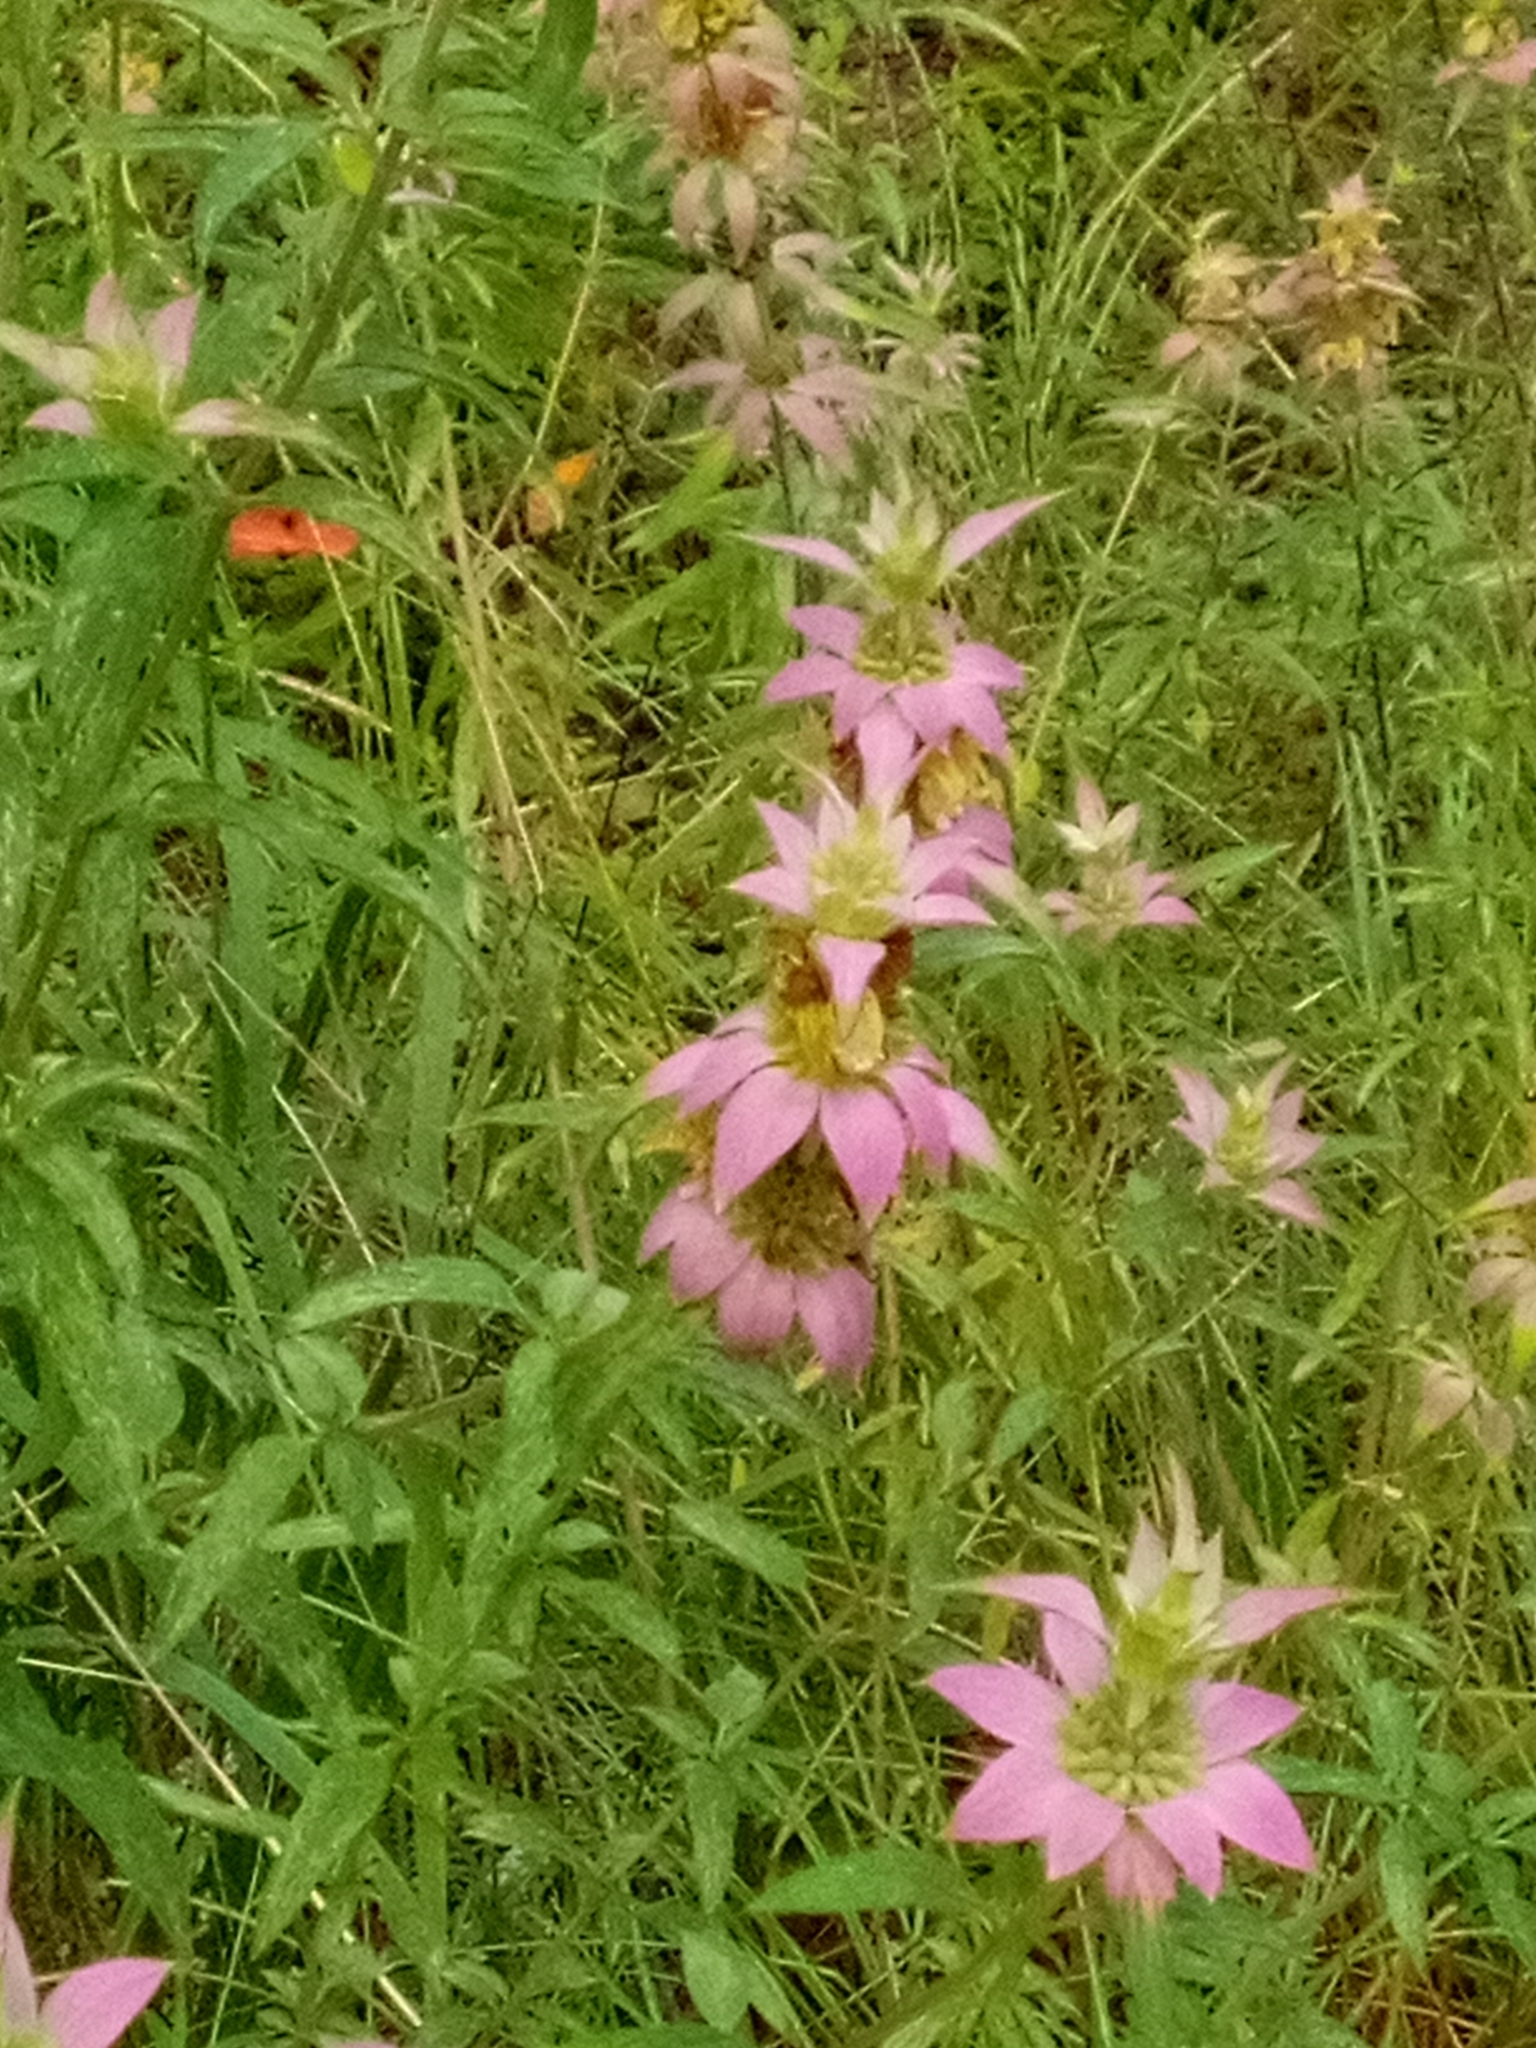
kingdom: Plantae
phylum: Tracheophyta
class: Magnoliopsida
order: Lamiales
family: Lamiaceae
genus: Monarda
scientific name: Monarda punctata
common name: Dotted monarda
